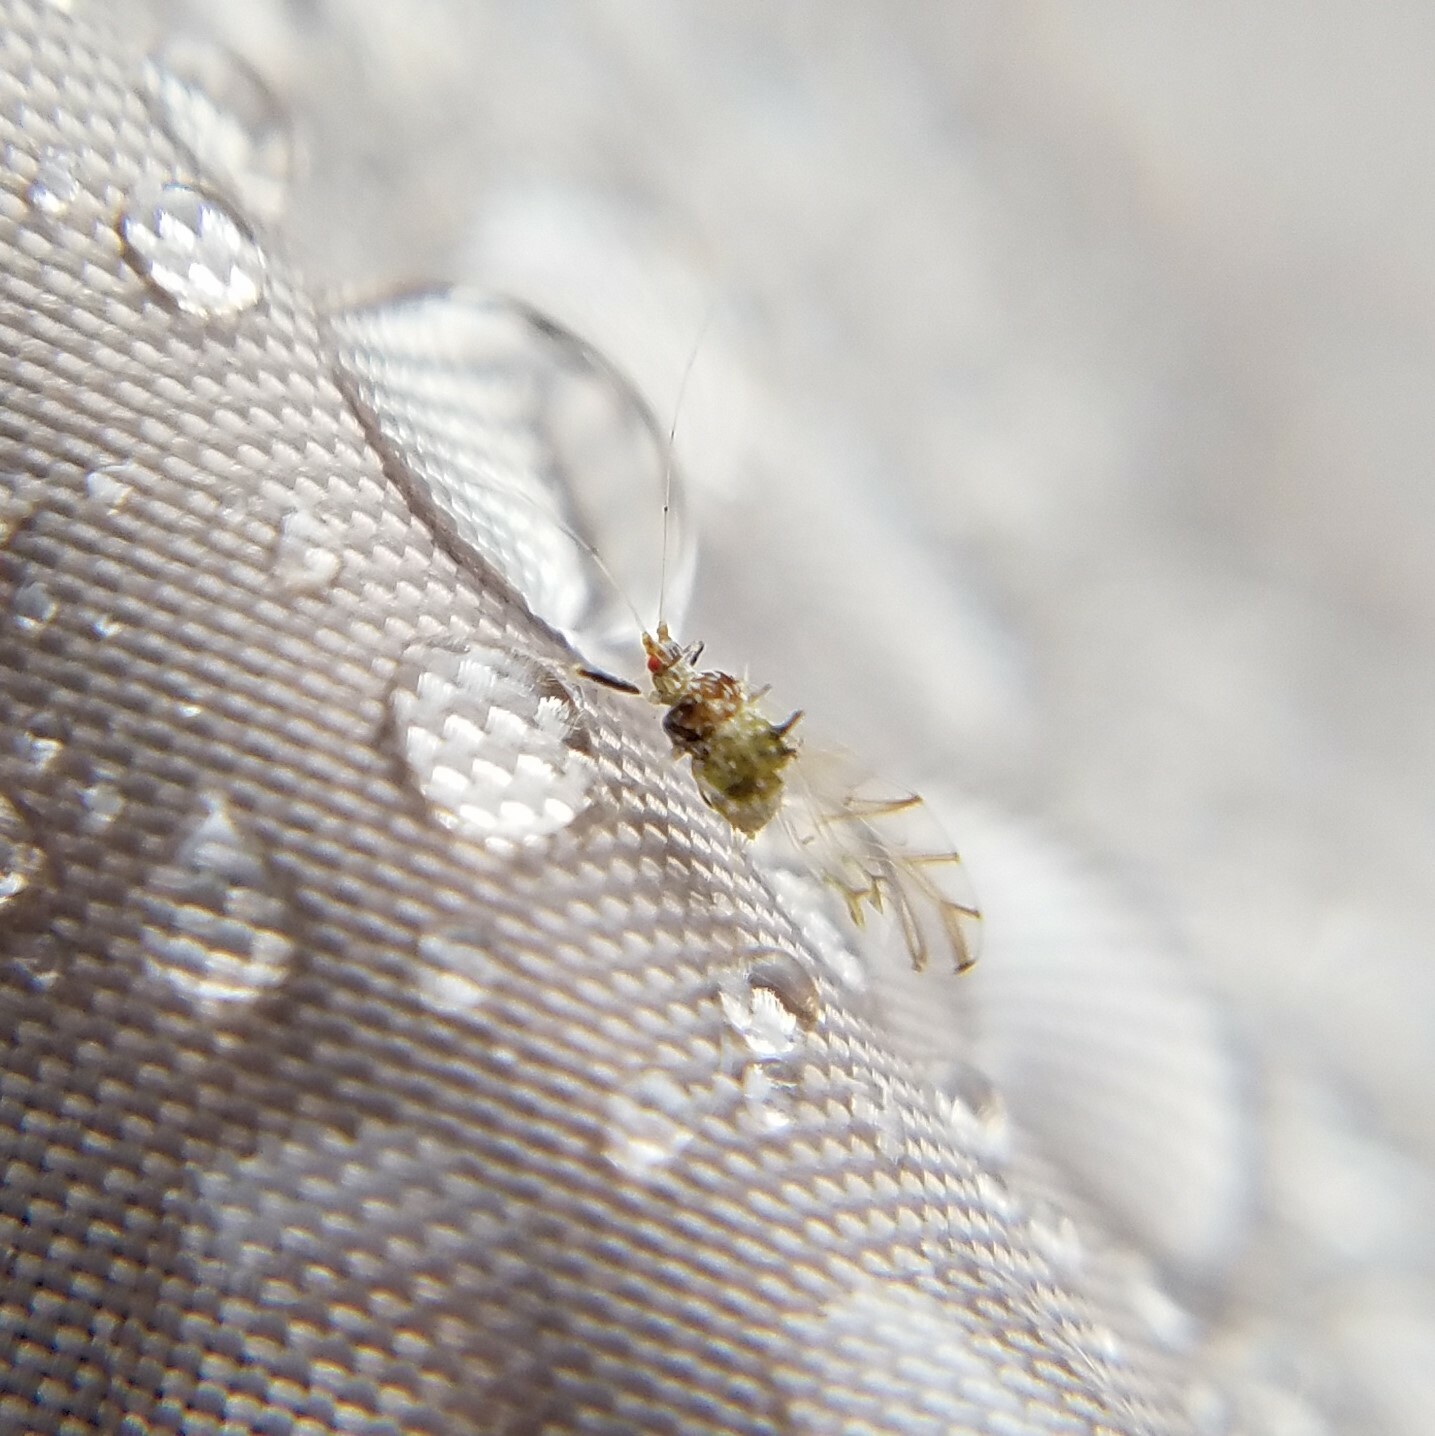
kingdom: Animalia
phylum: Arthropoda
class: Insecta
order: Hemiptera
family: Aphididae
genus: Drepanaphis
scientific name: Drepanaphis acerifoliae
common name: Painted maple aphid
